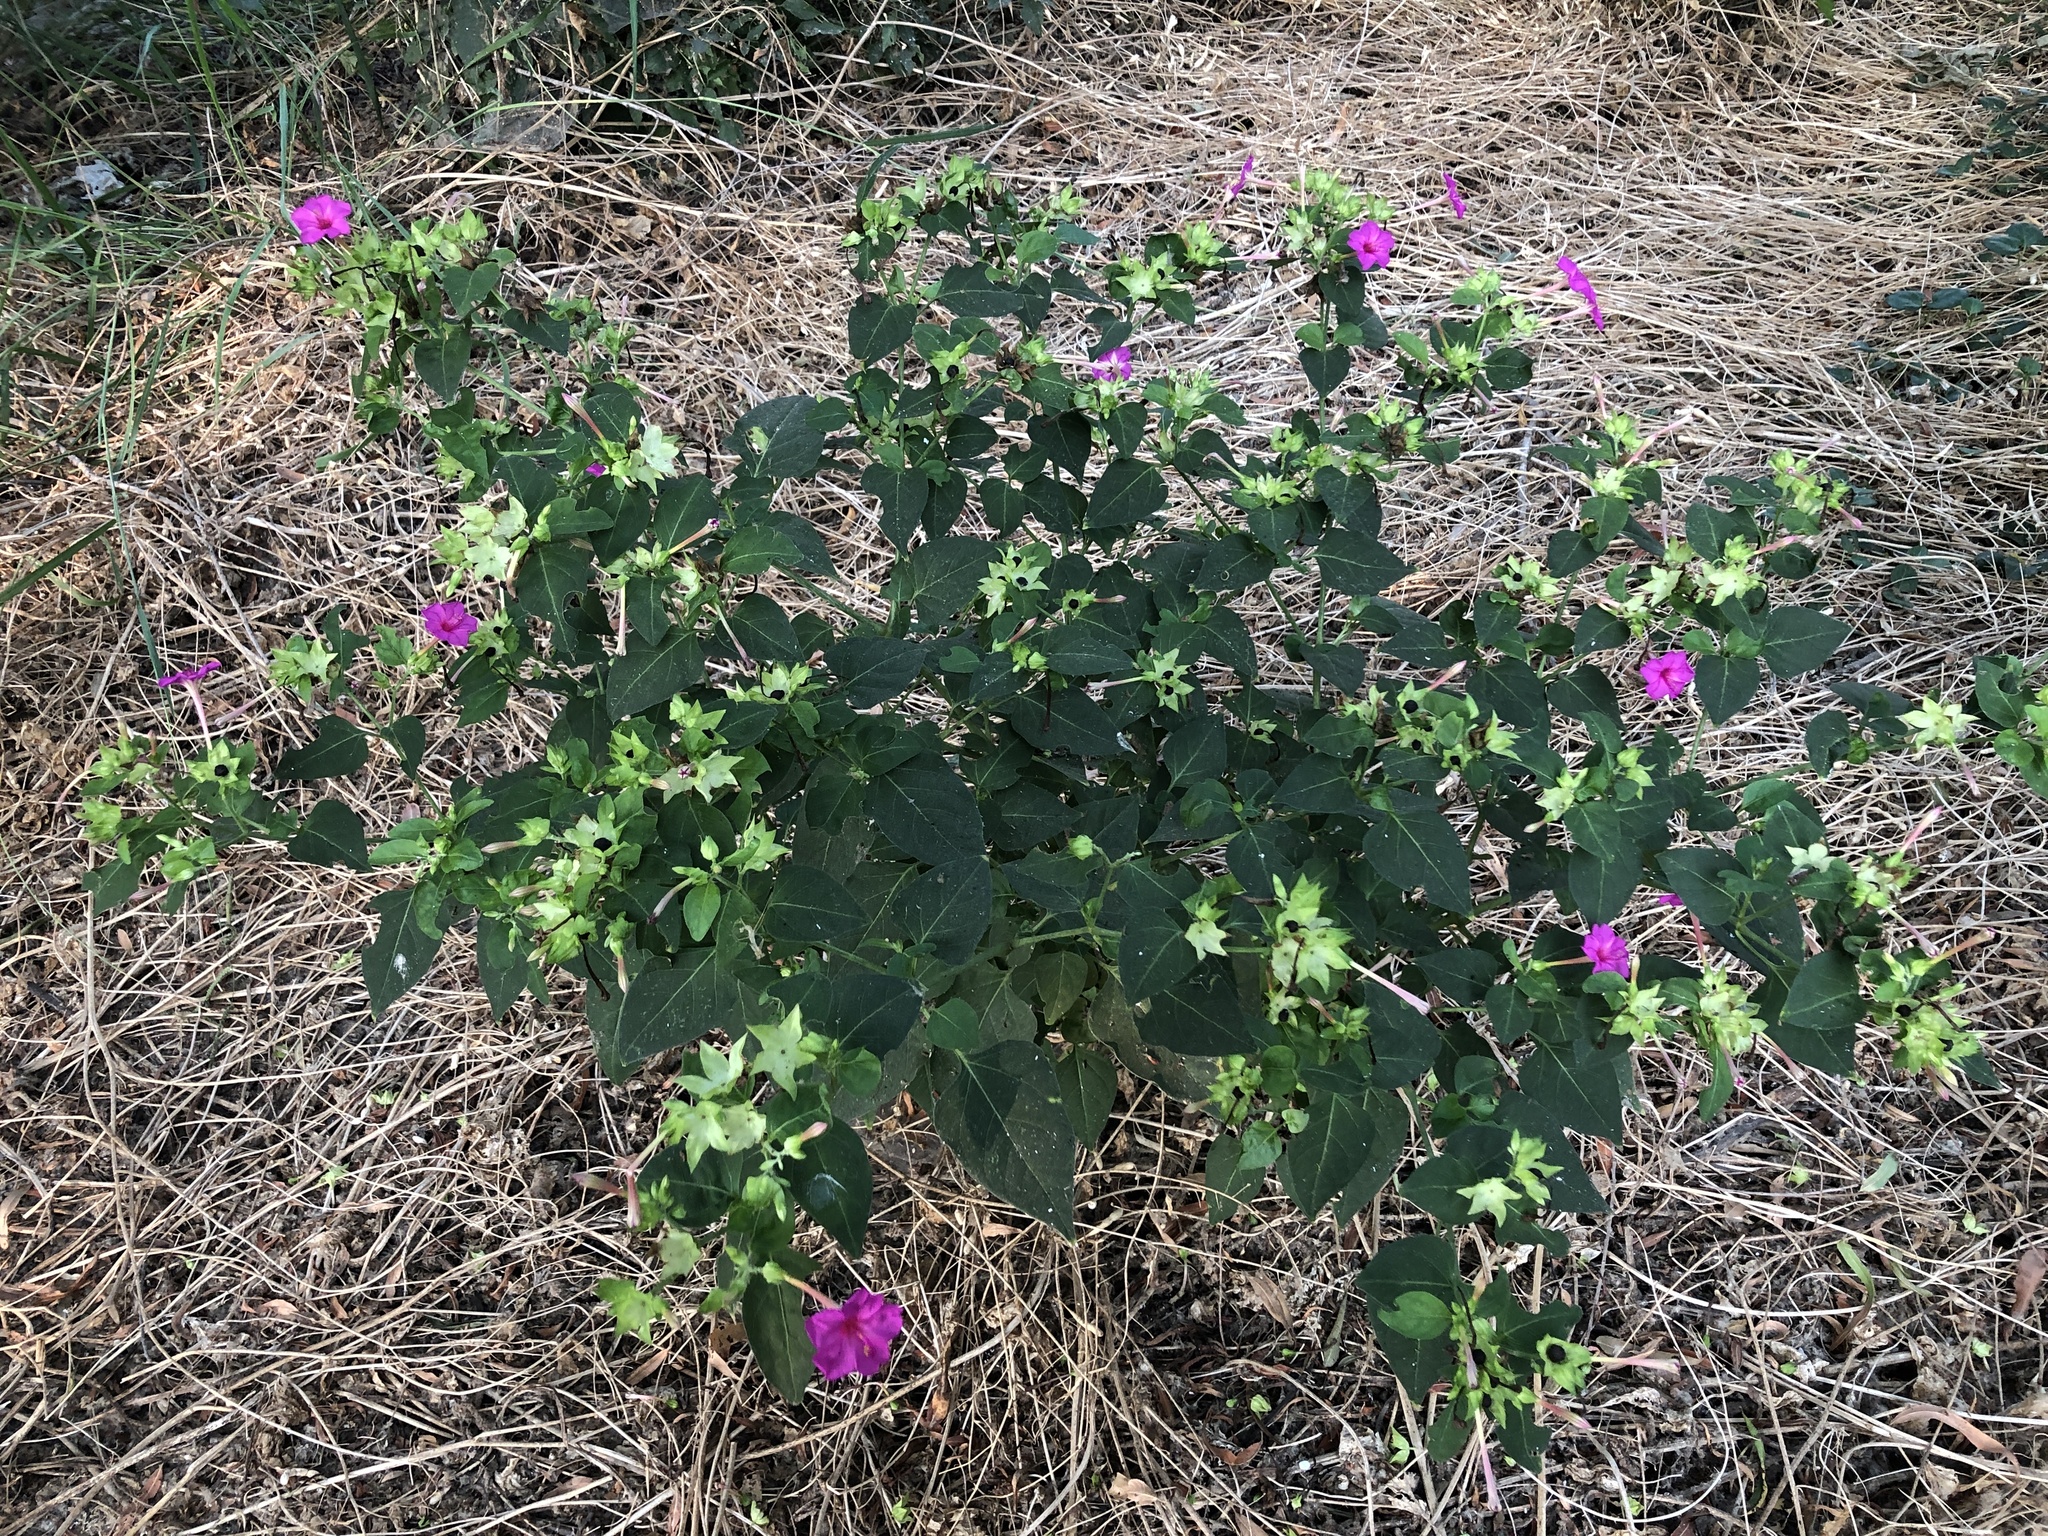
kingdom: Plantae
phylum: Tracheophyta
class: Magnoliopsida
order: Caryophyllales
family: Nyctaginaceae
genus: Mirabilis
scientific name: Mirabilis jalapa
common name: Marvel-of-peru
